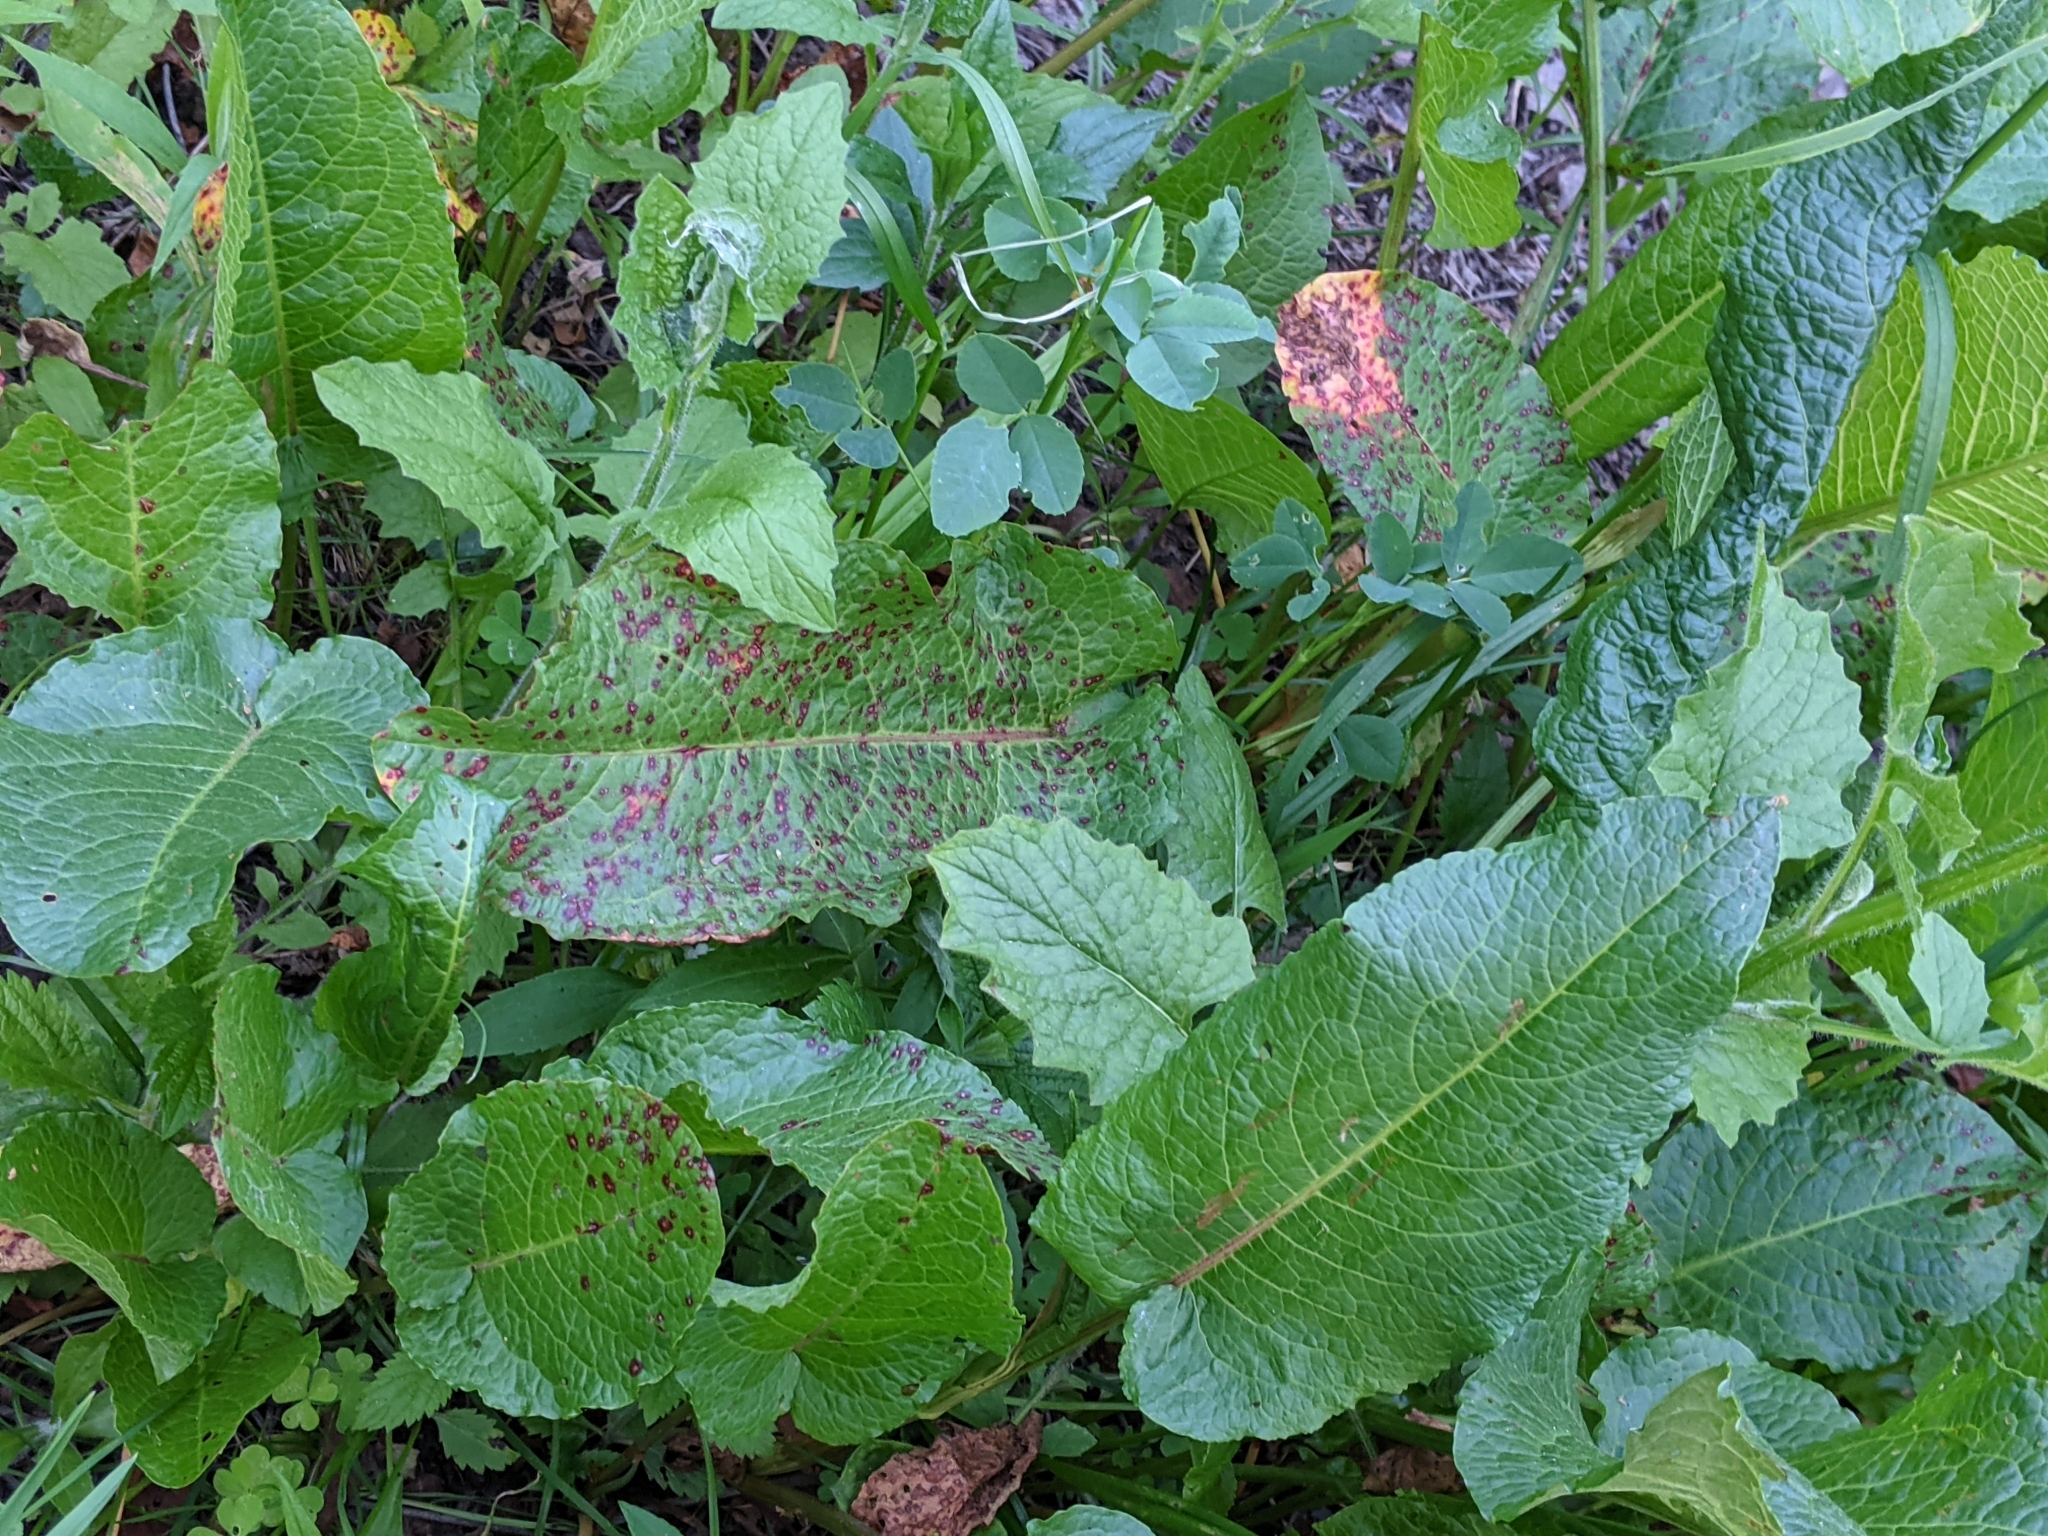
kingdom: Fungi
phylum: Ascomycota
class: Dothideomycetes
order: Mycosphaerellales
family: Mycosphaerellaceae
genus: Ramularia
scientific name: Ramularia rubella
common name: Red dock spot
